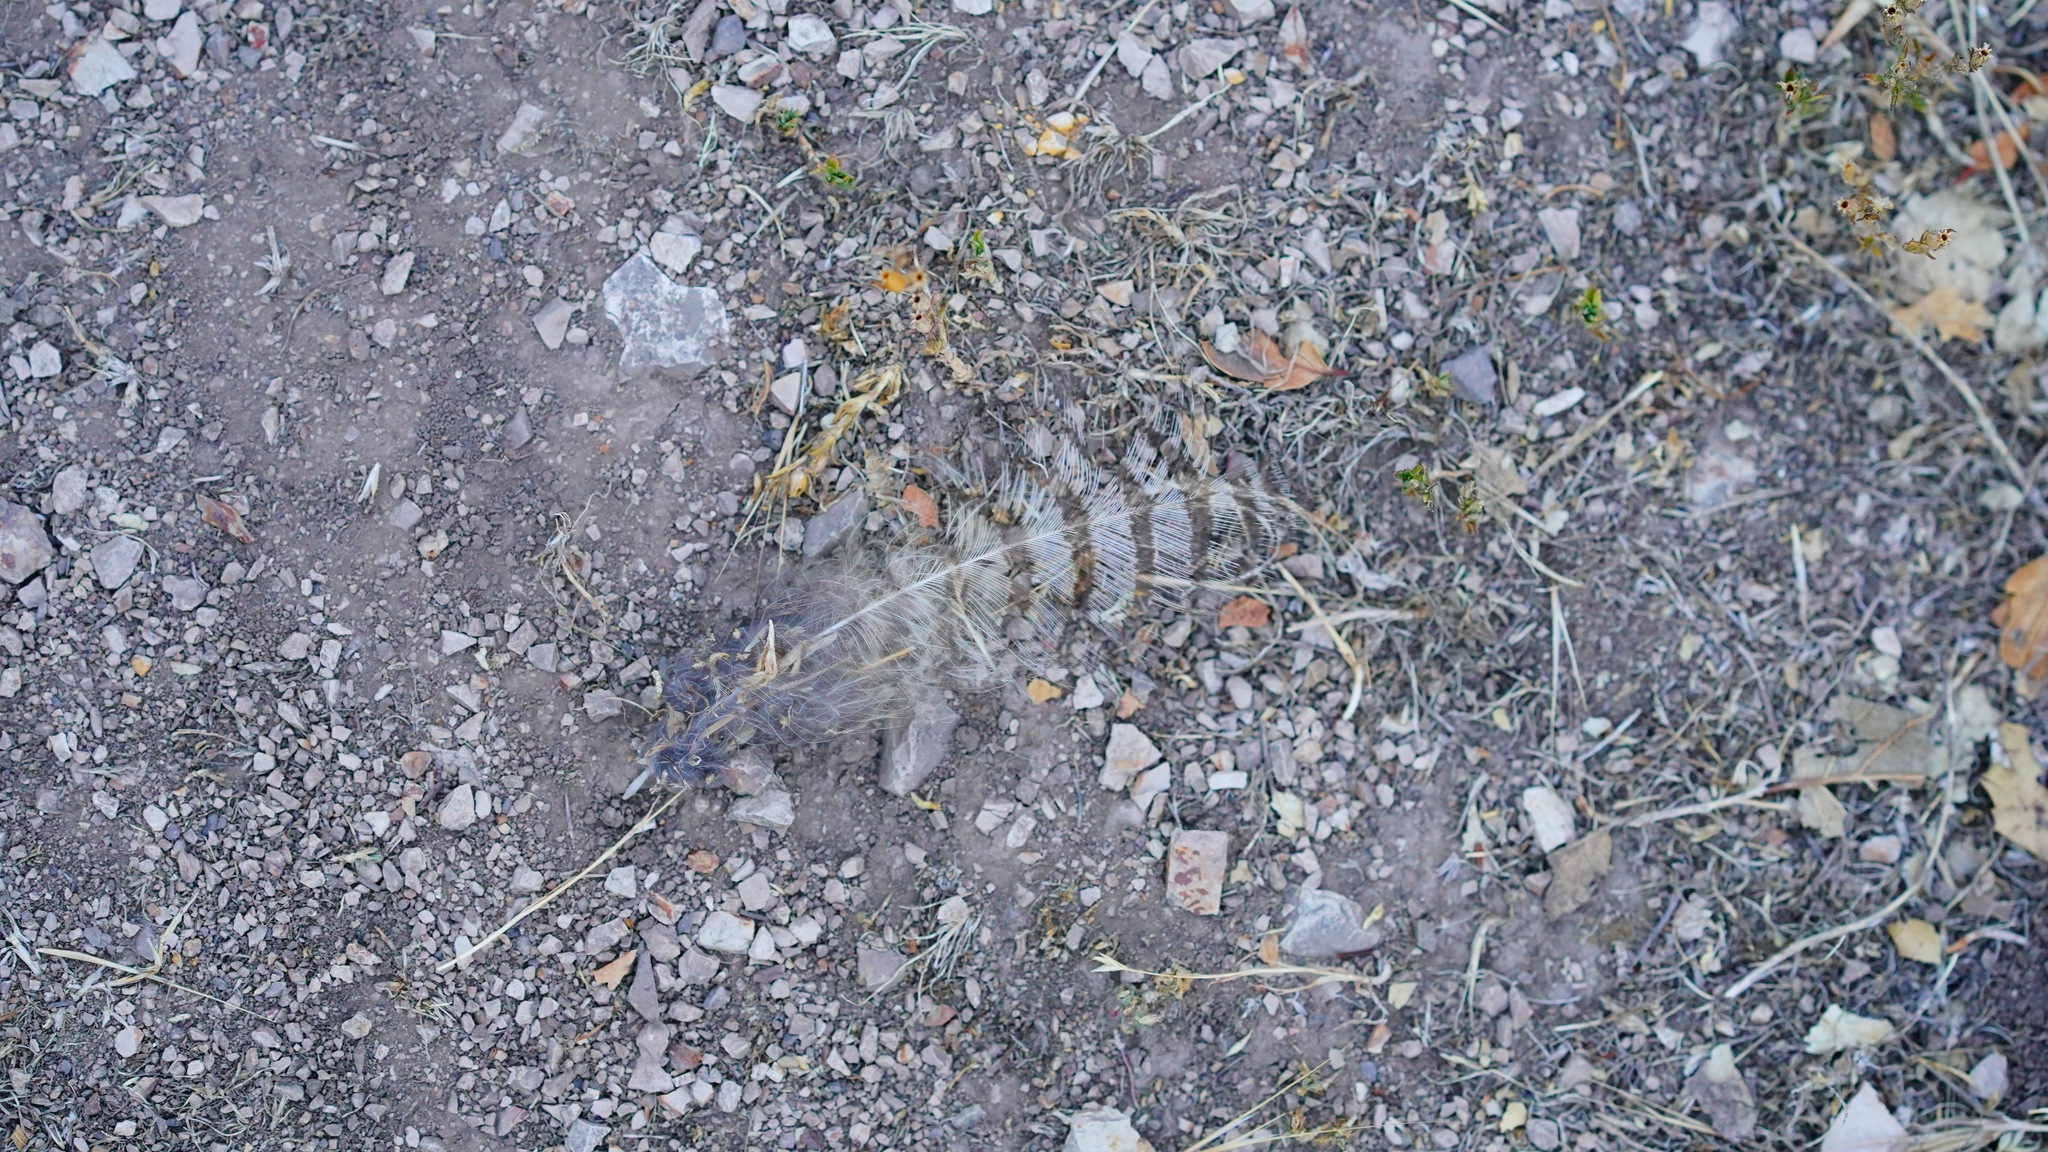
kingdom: Animalia
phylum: Chordata
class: Aves
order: Strigiformes
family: Strigidae
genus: Bubo
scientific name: Bubo virginianus
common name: Great horned owl
